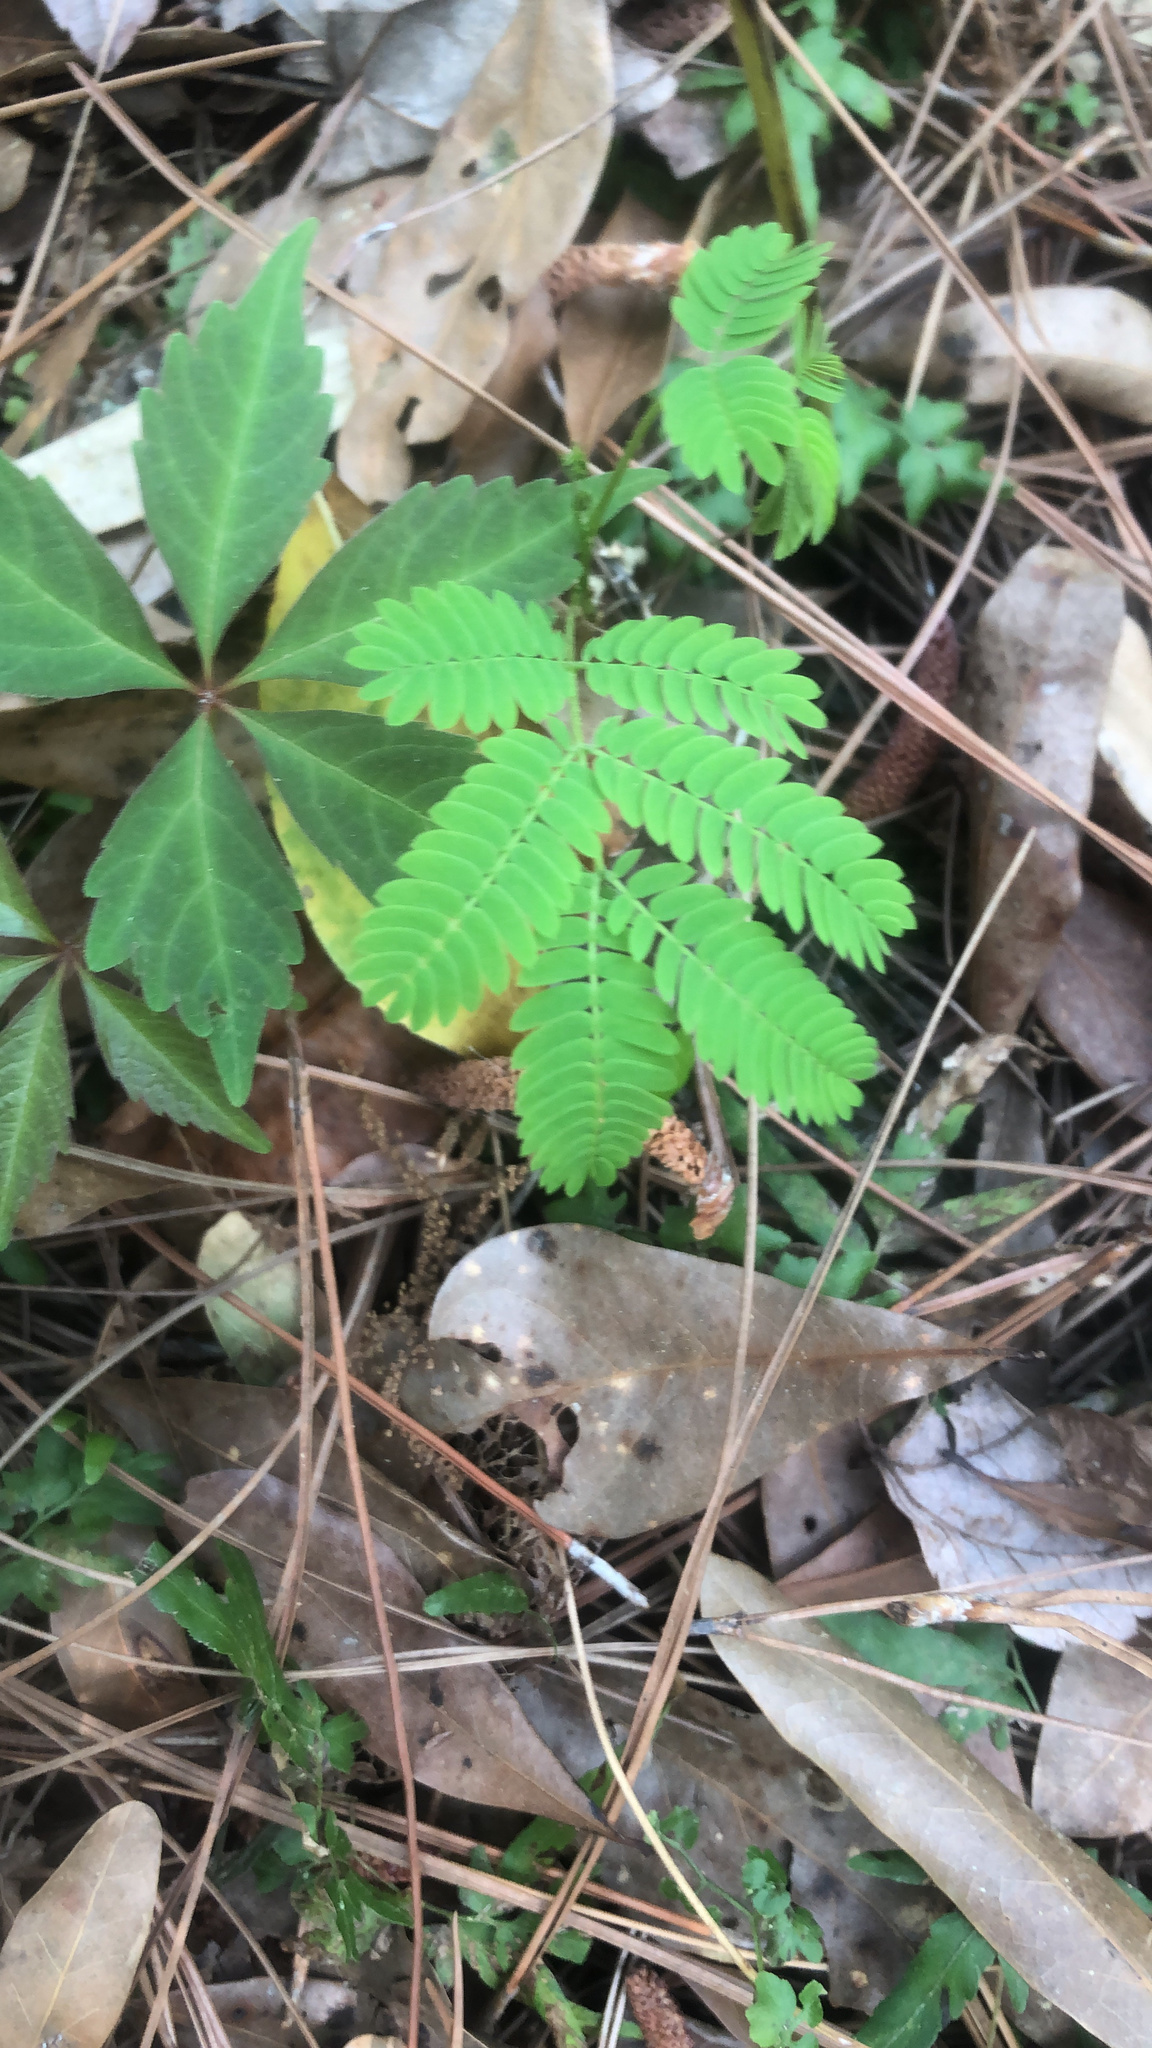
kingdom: Plantae
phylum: Tracheophyta
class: Magnoliopsida
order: Fabales
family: Fabaceae
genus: Mimosa
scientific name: Mimosa strigillosa
